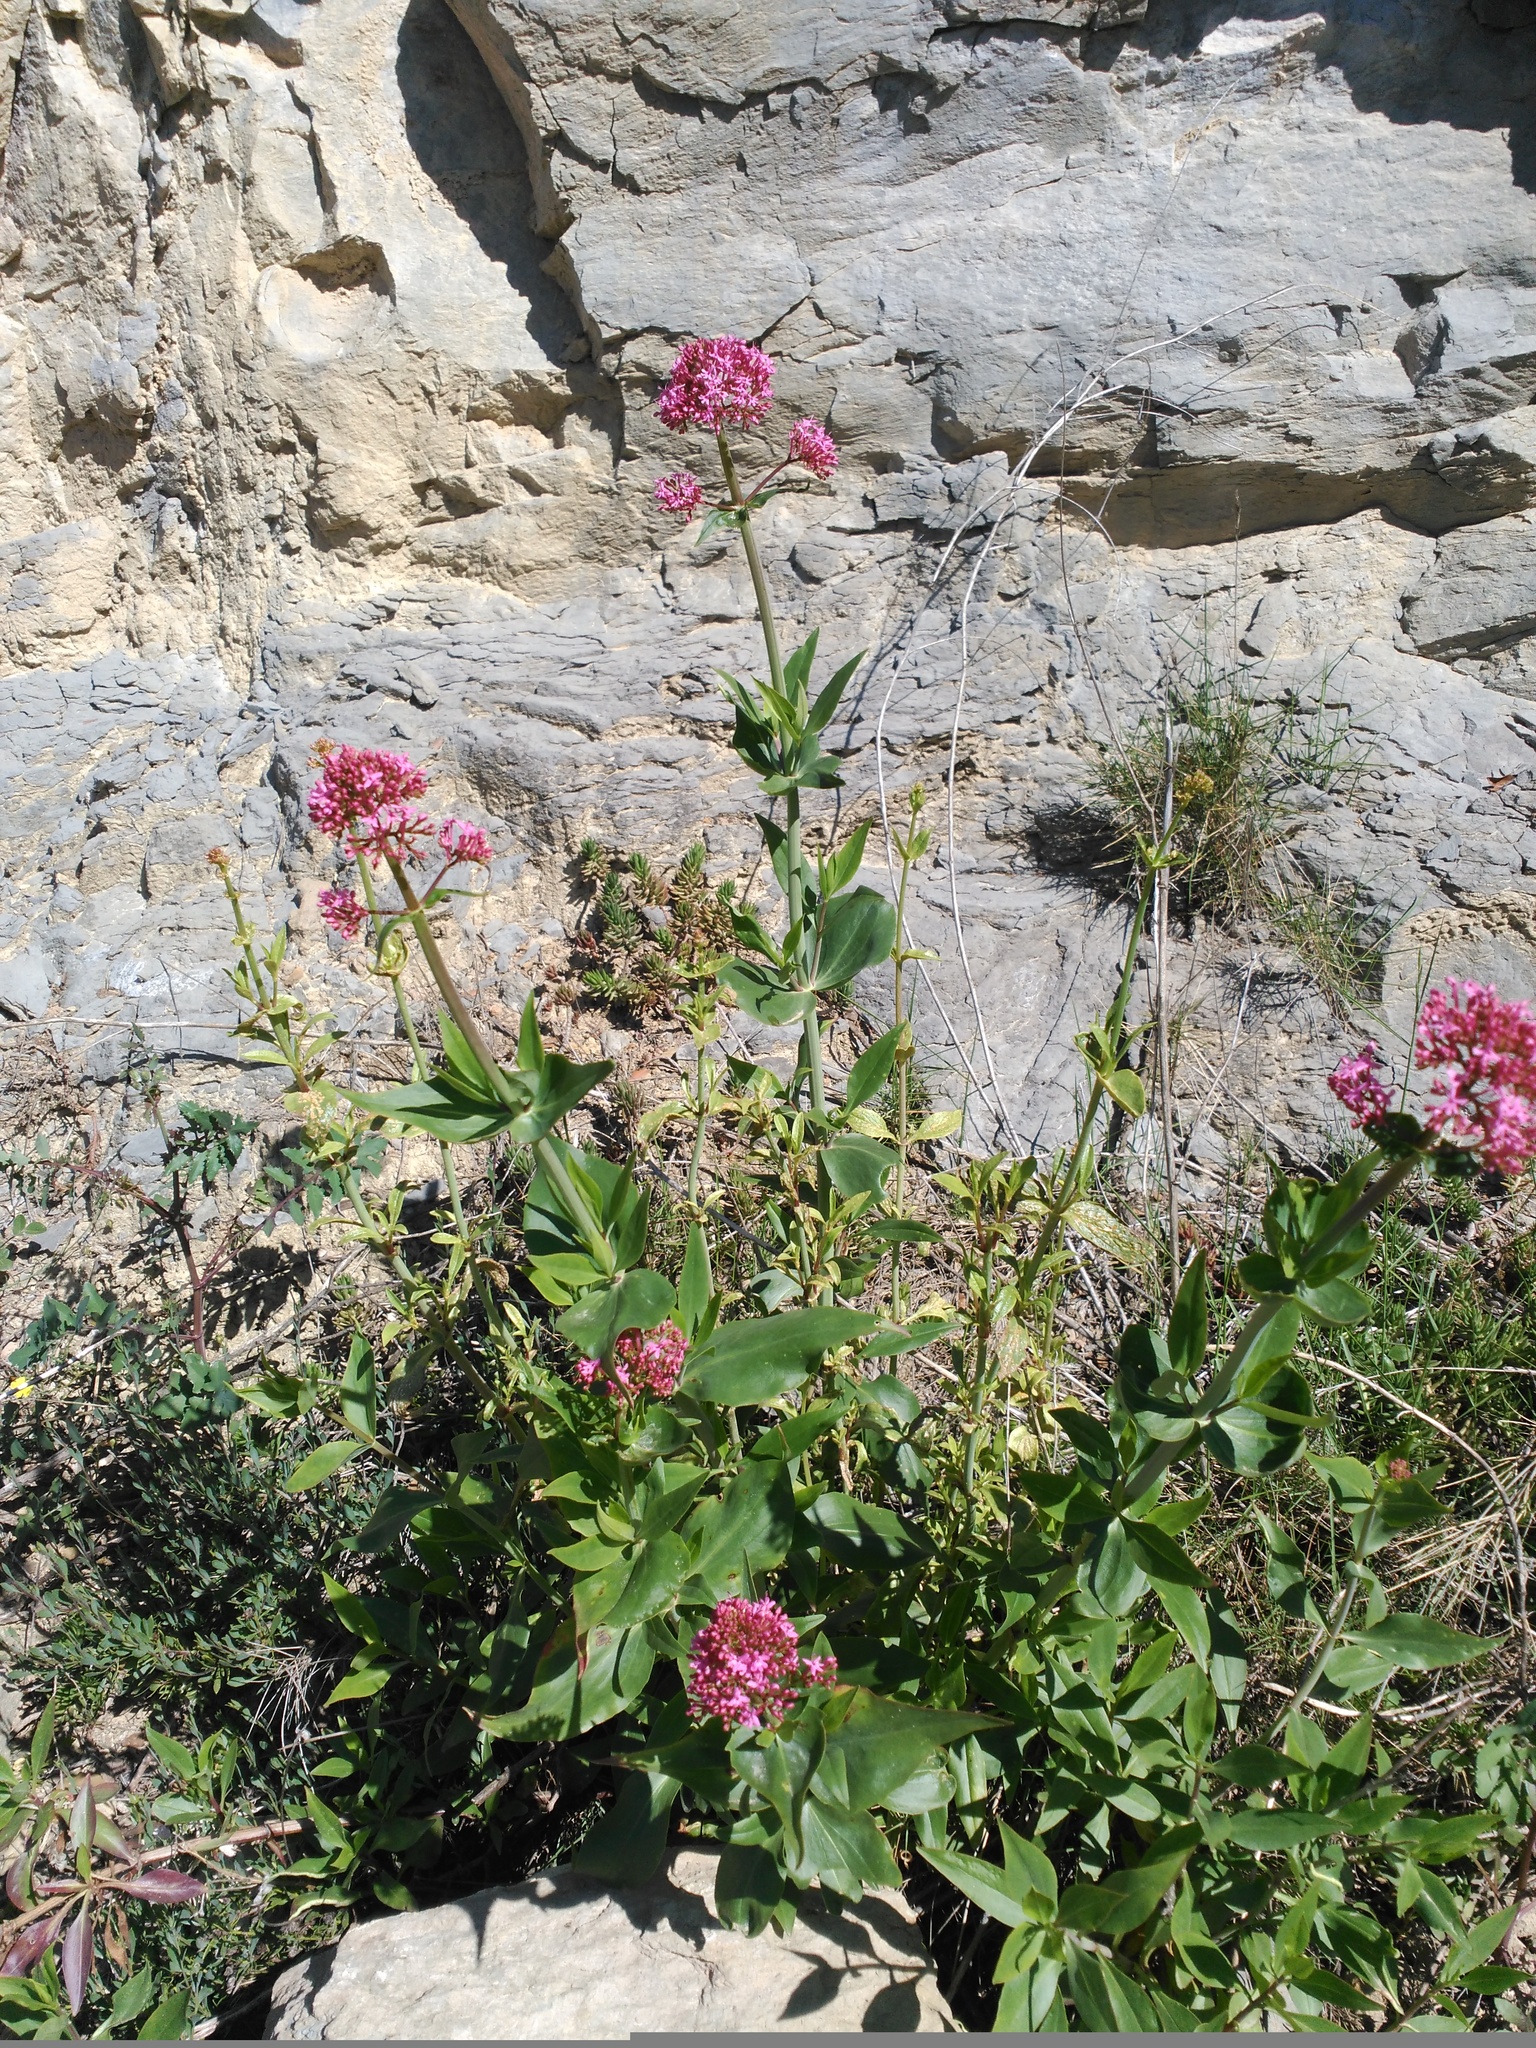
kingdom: Plantae
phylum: Tracheophyta
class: Magnoliopsida
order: Dipsacales
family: Caprifoliaceae
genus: Centranthus
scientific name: Centranthus ruber
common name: Red valerian
